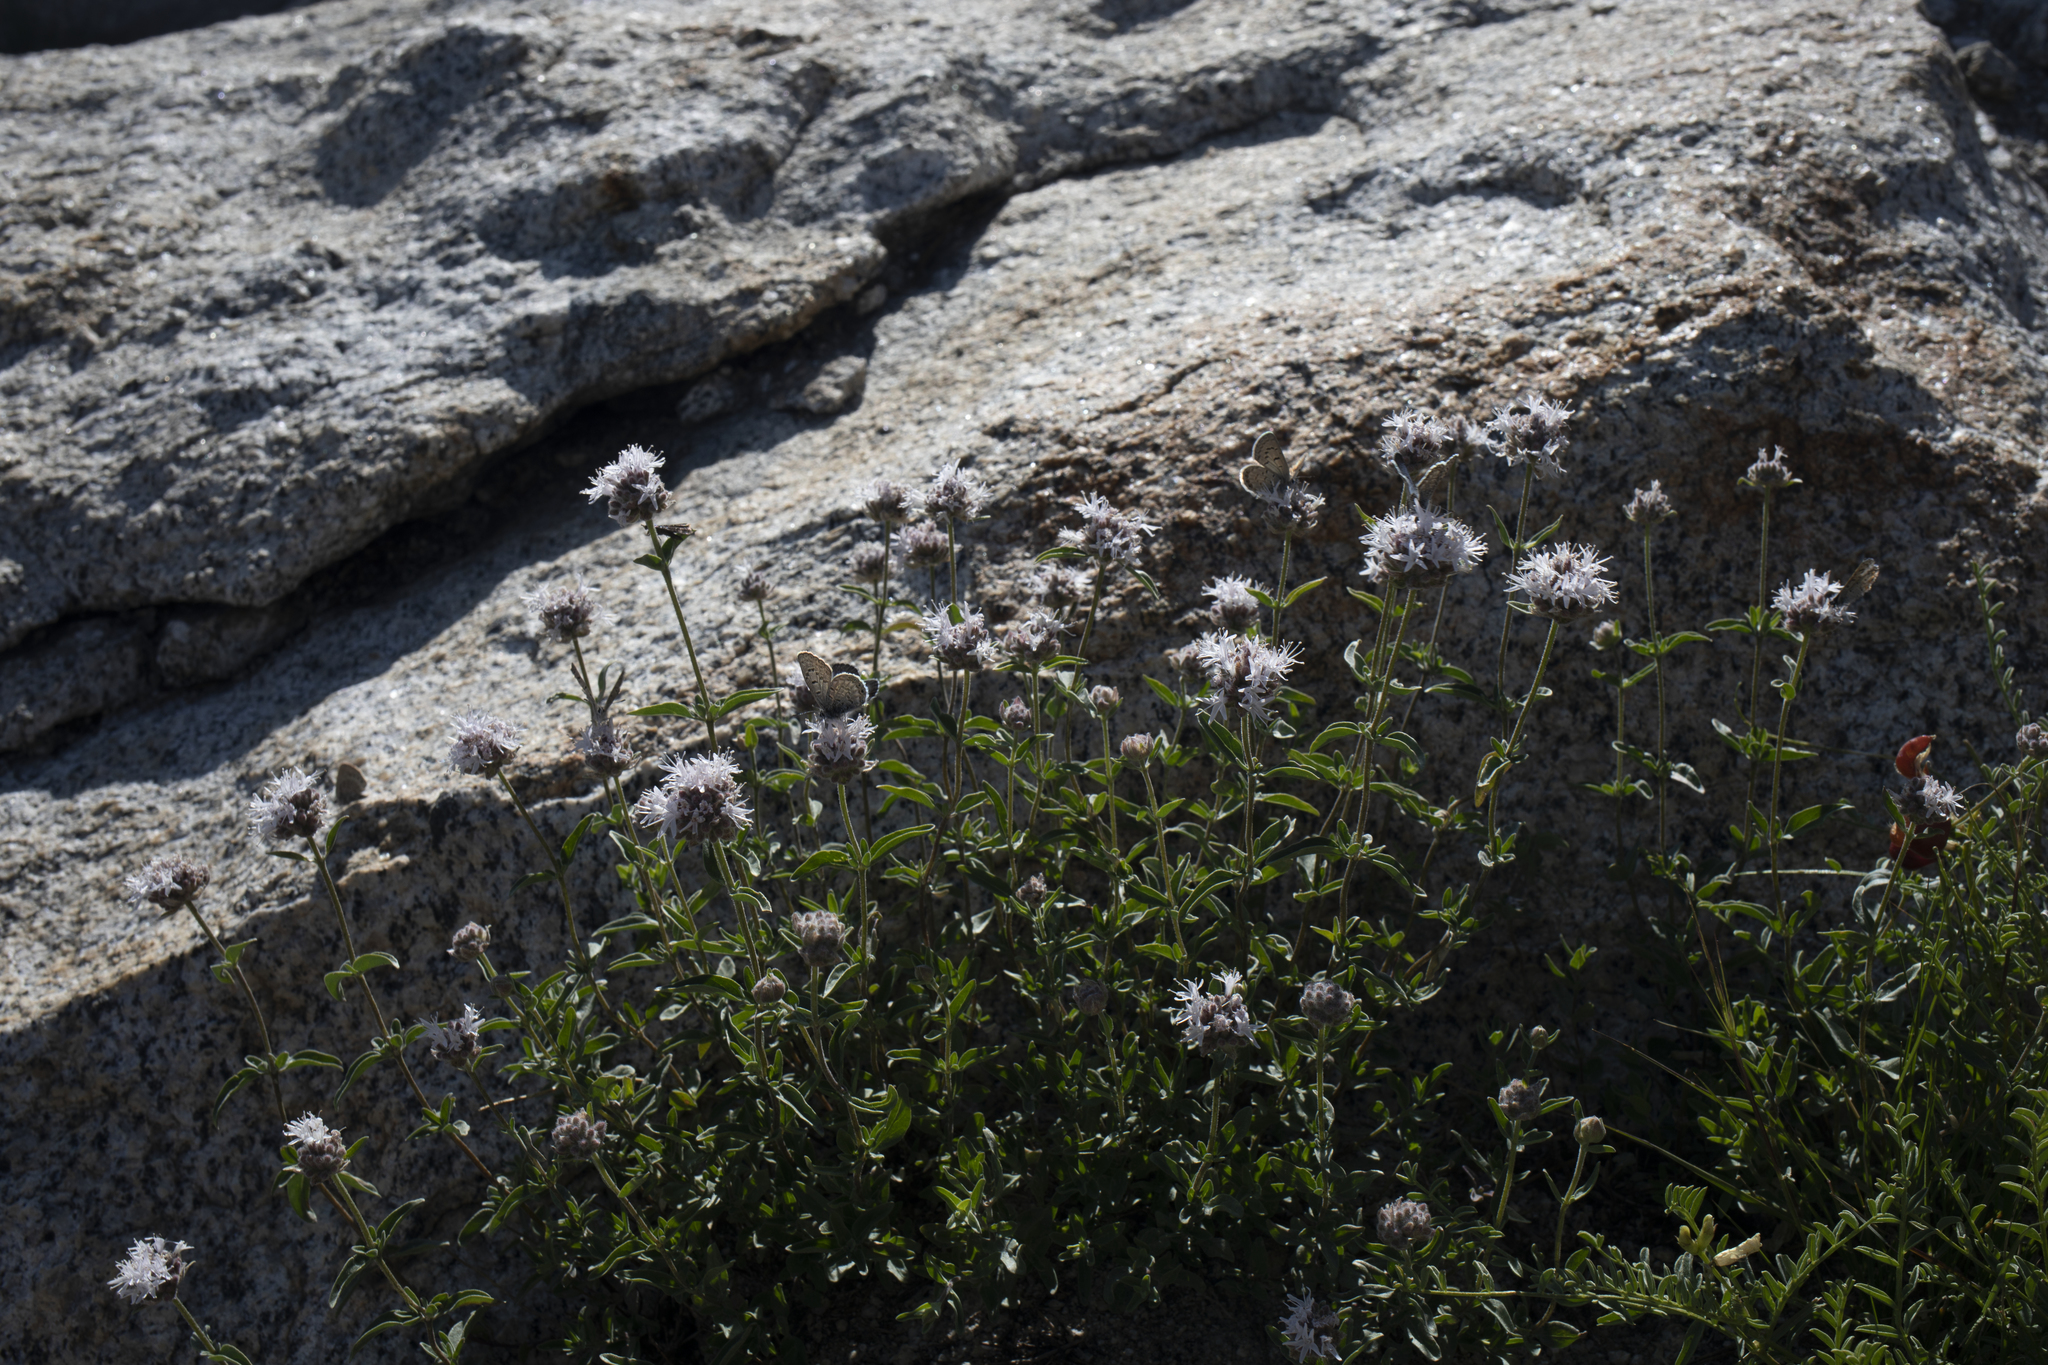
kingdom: Animalia
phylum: Arthropoda
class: Insecta
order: Lepidoptera
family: Lycaenidae
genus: Icaricia
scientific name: Icaricia shasta
